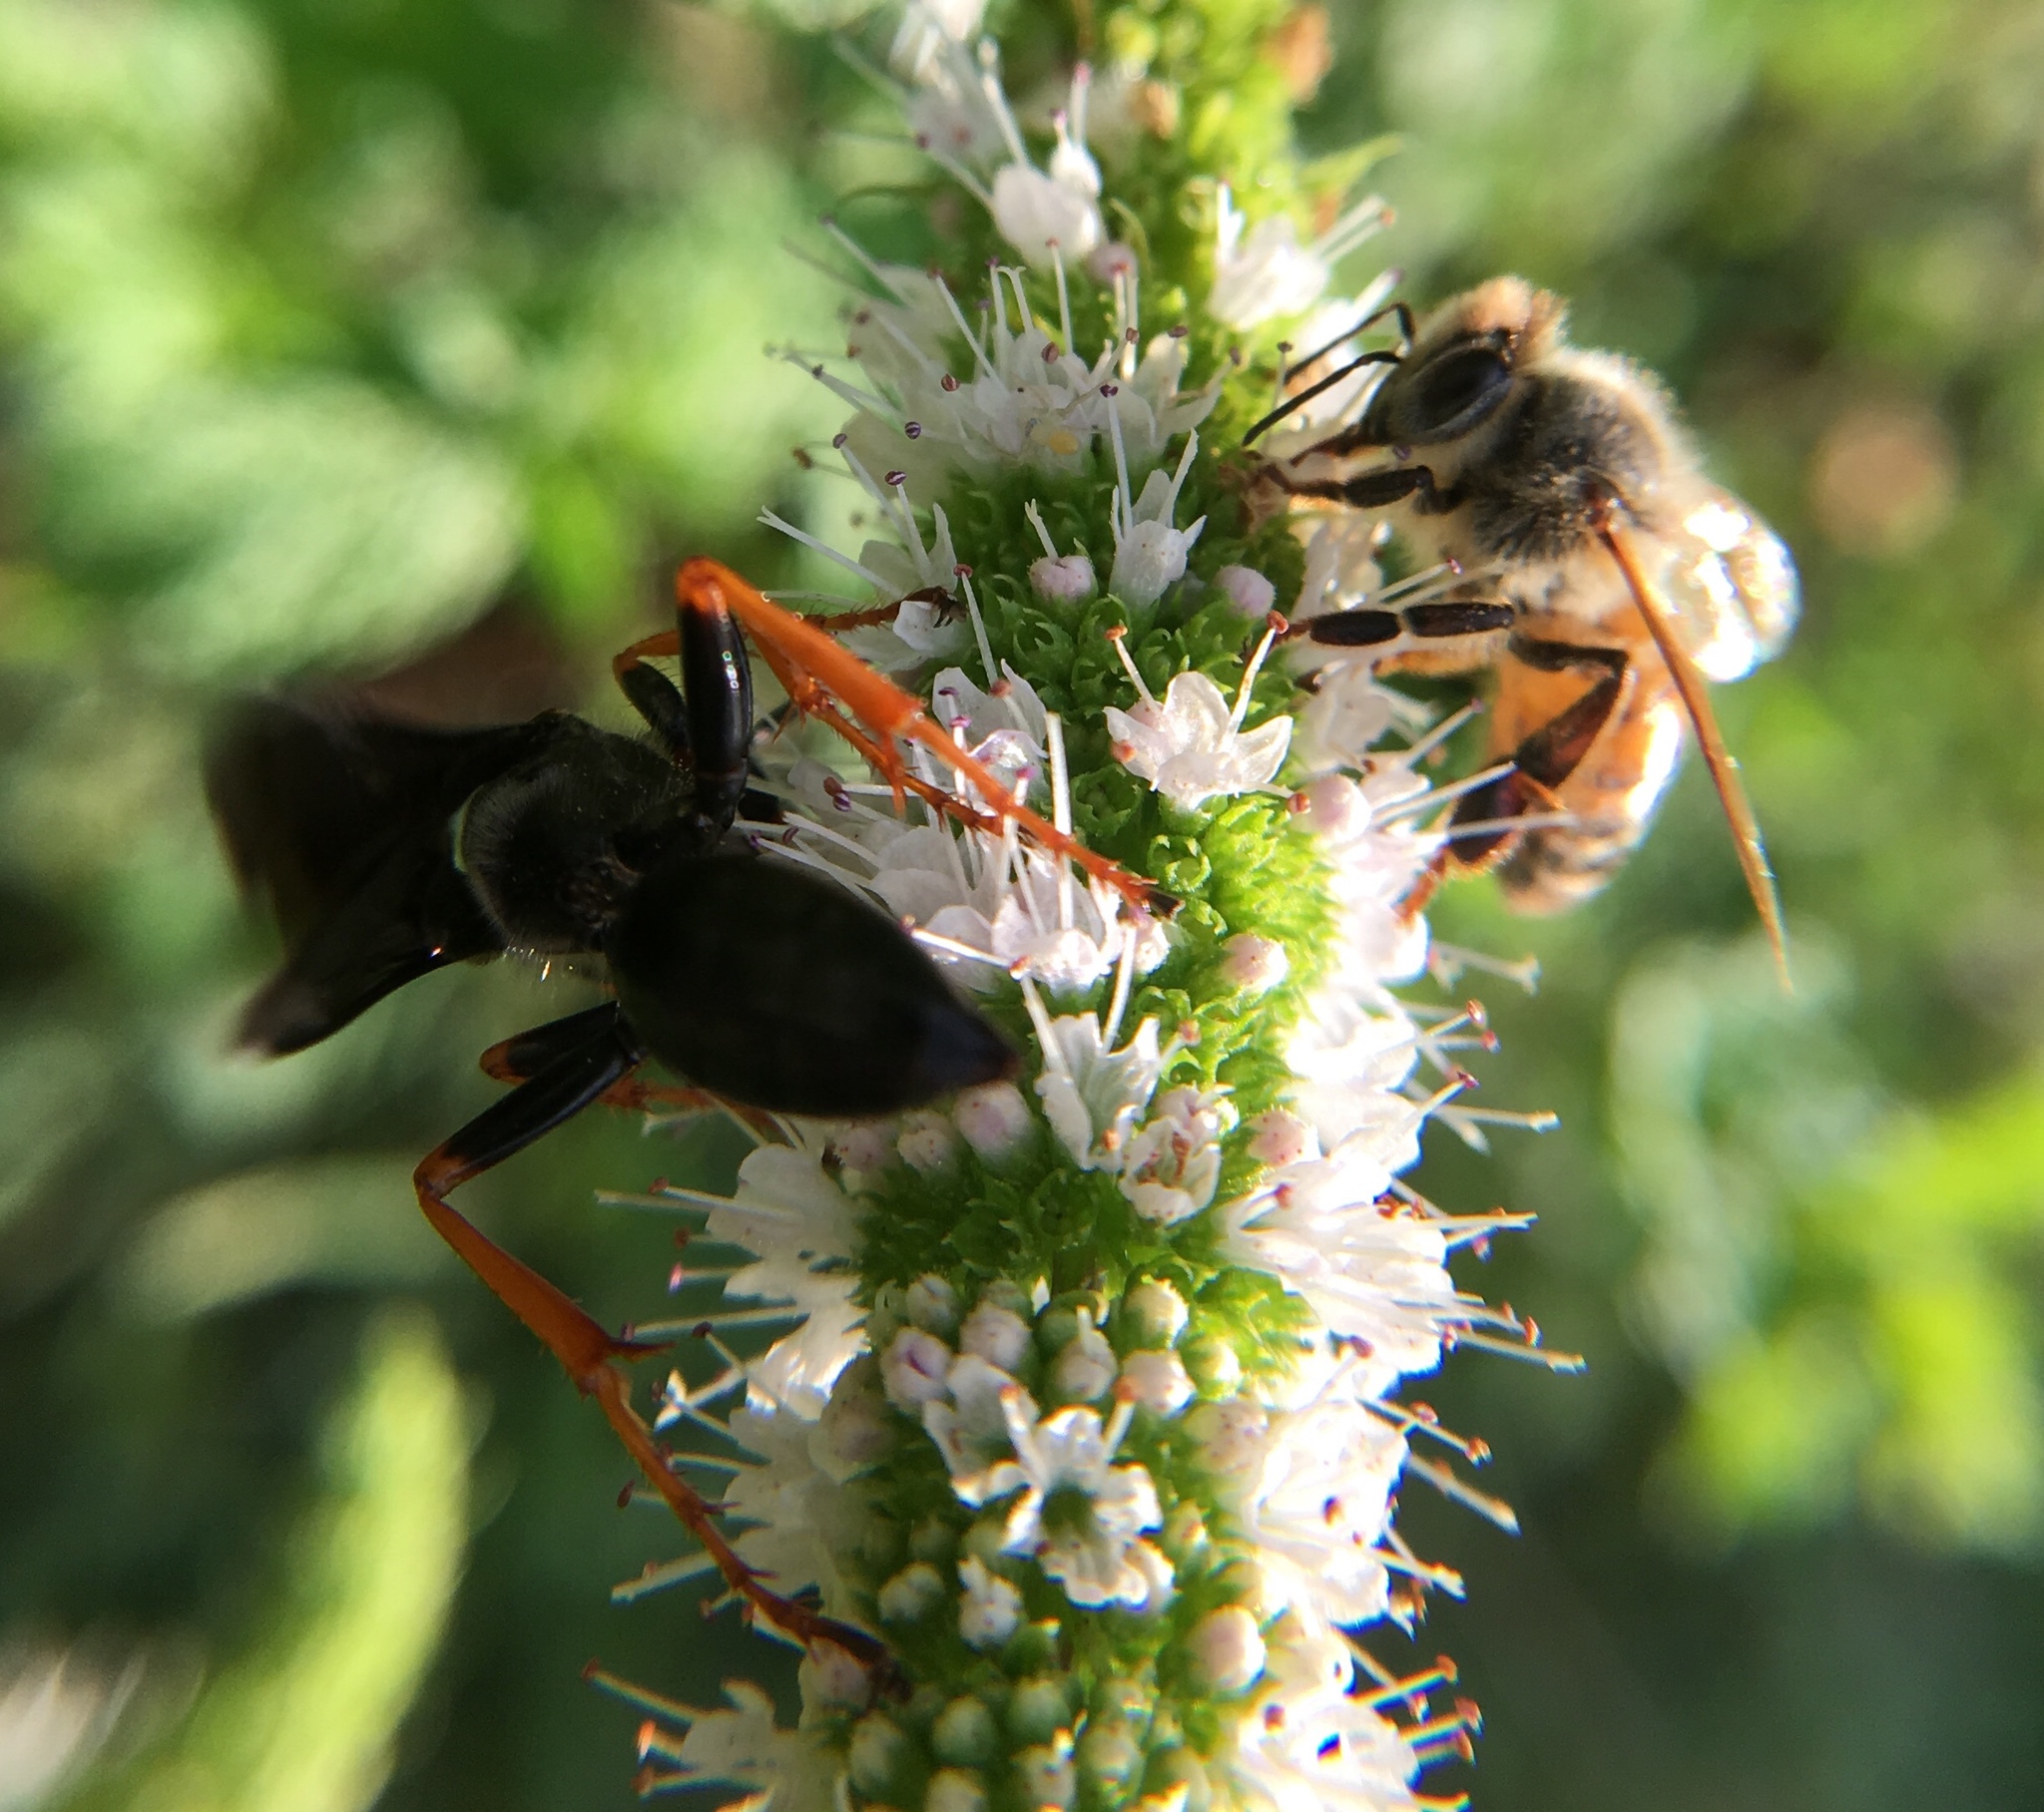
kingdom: Animalia
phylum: Arthropoda
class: Insecta
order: Hymenoptera
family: Sphecidae
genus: Sphex
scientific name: Sphex nudus
